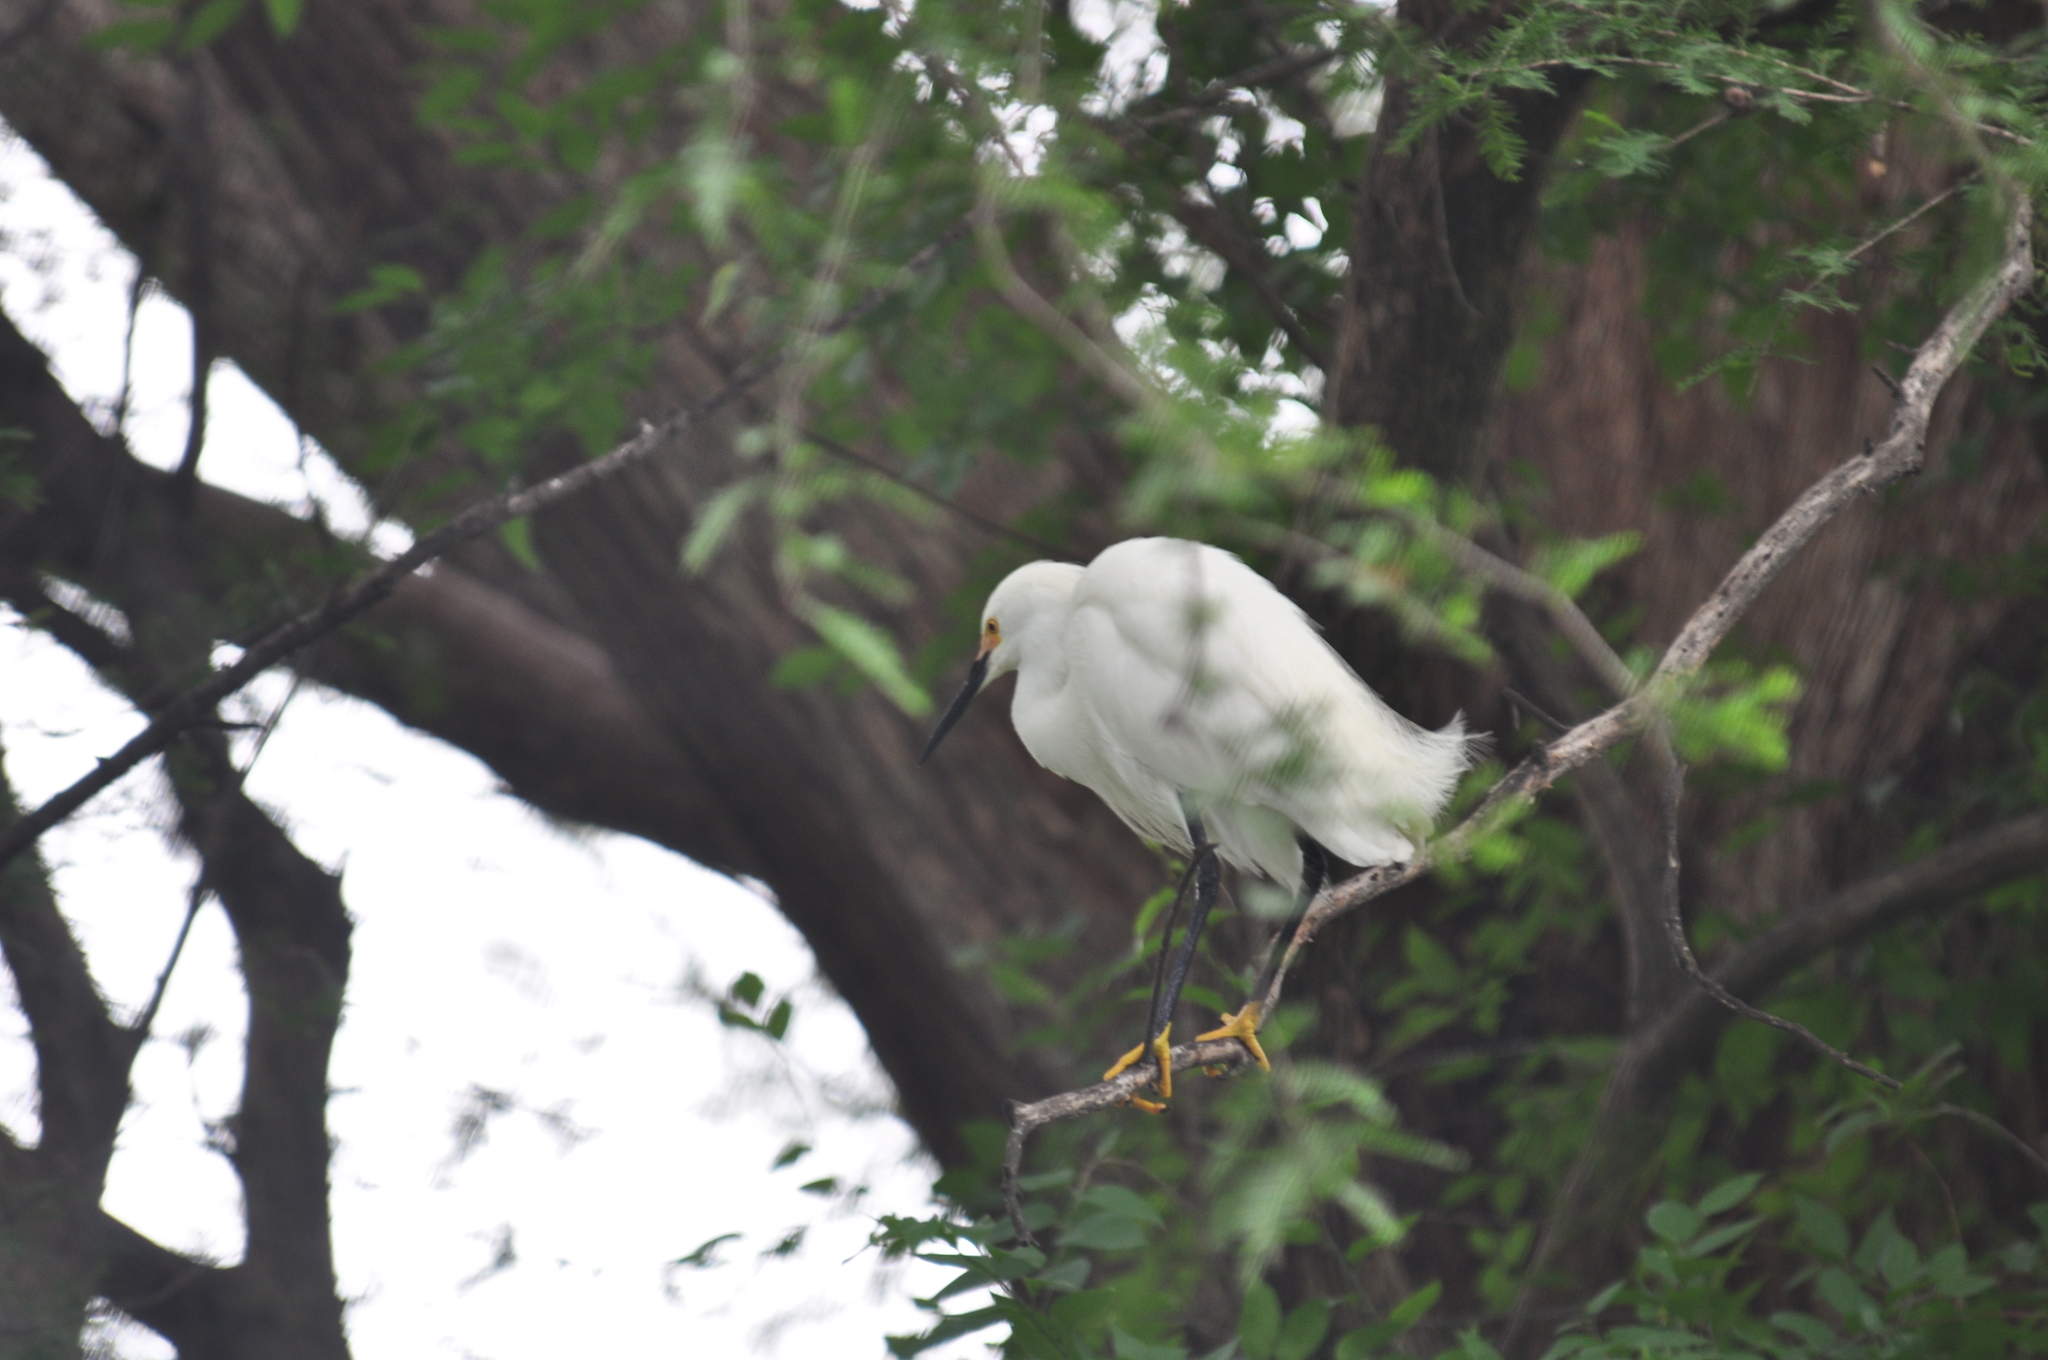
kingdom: Animalia
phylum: Chordata
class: Aves
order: Pelecaniformes
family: Ardeidae
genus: Egretta
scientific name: Egretta thula
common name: Snowy egret
